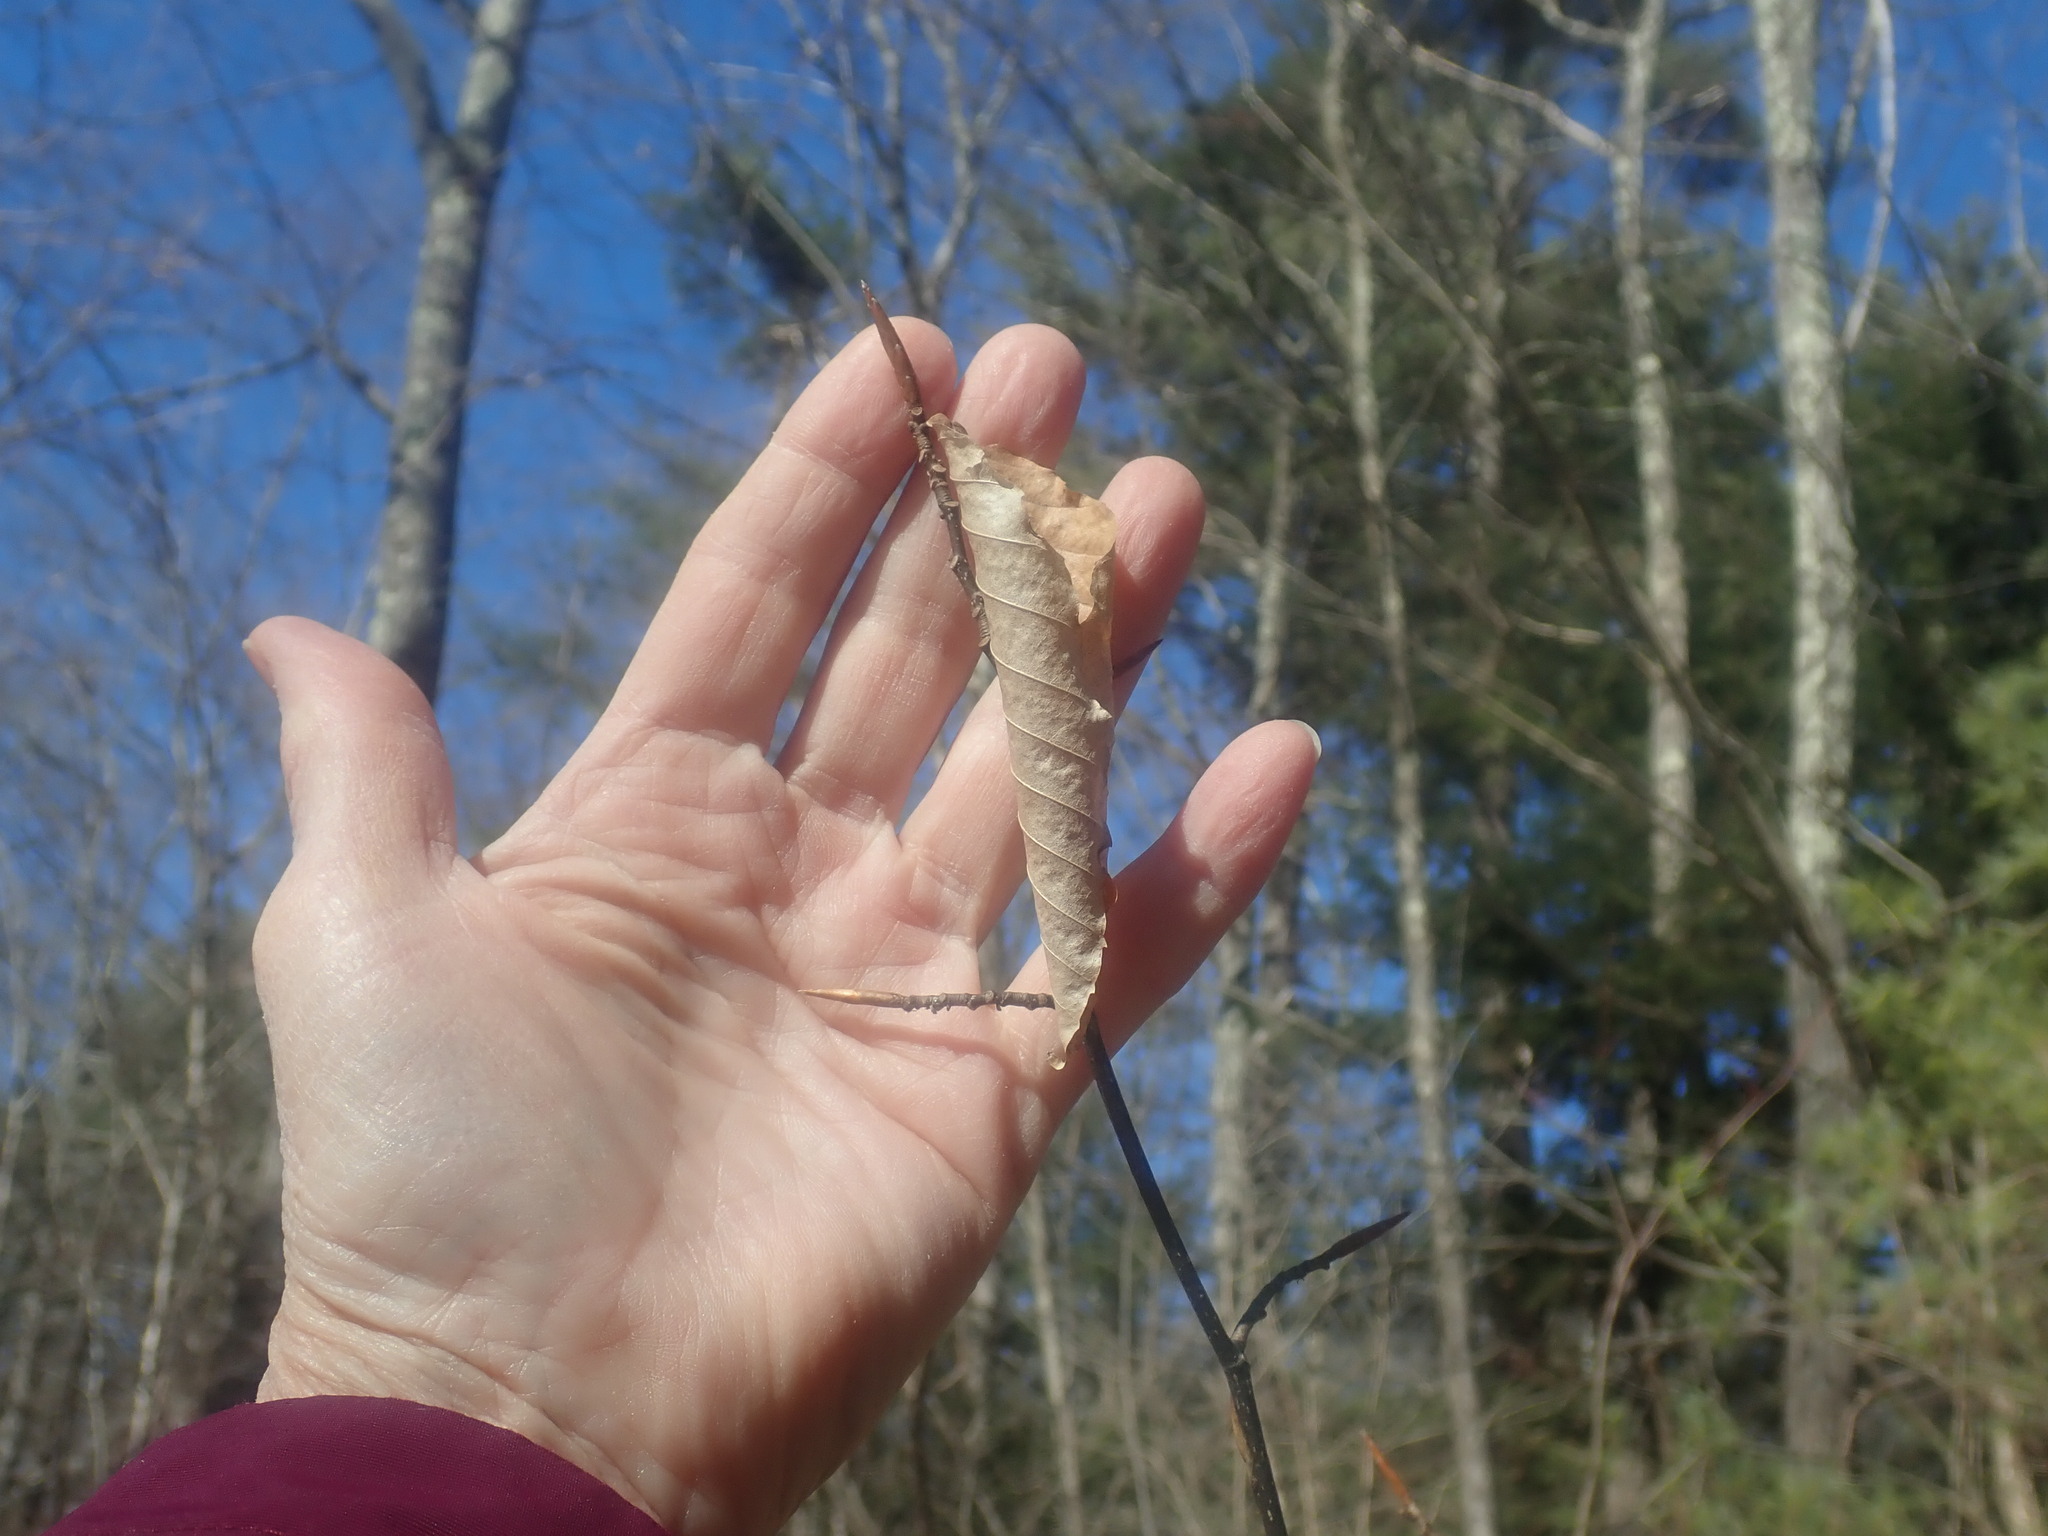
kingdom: Plantae
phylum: Tracheophyta
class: Magnoliopsida
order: Fagales
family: Fagaceae
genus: Fagus
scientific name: Fagus grandifolia
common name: American beech
